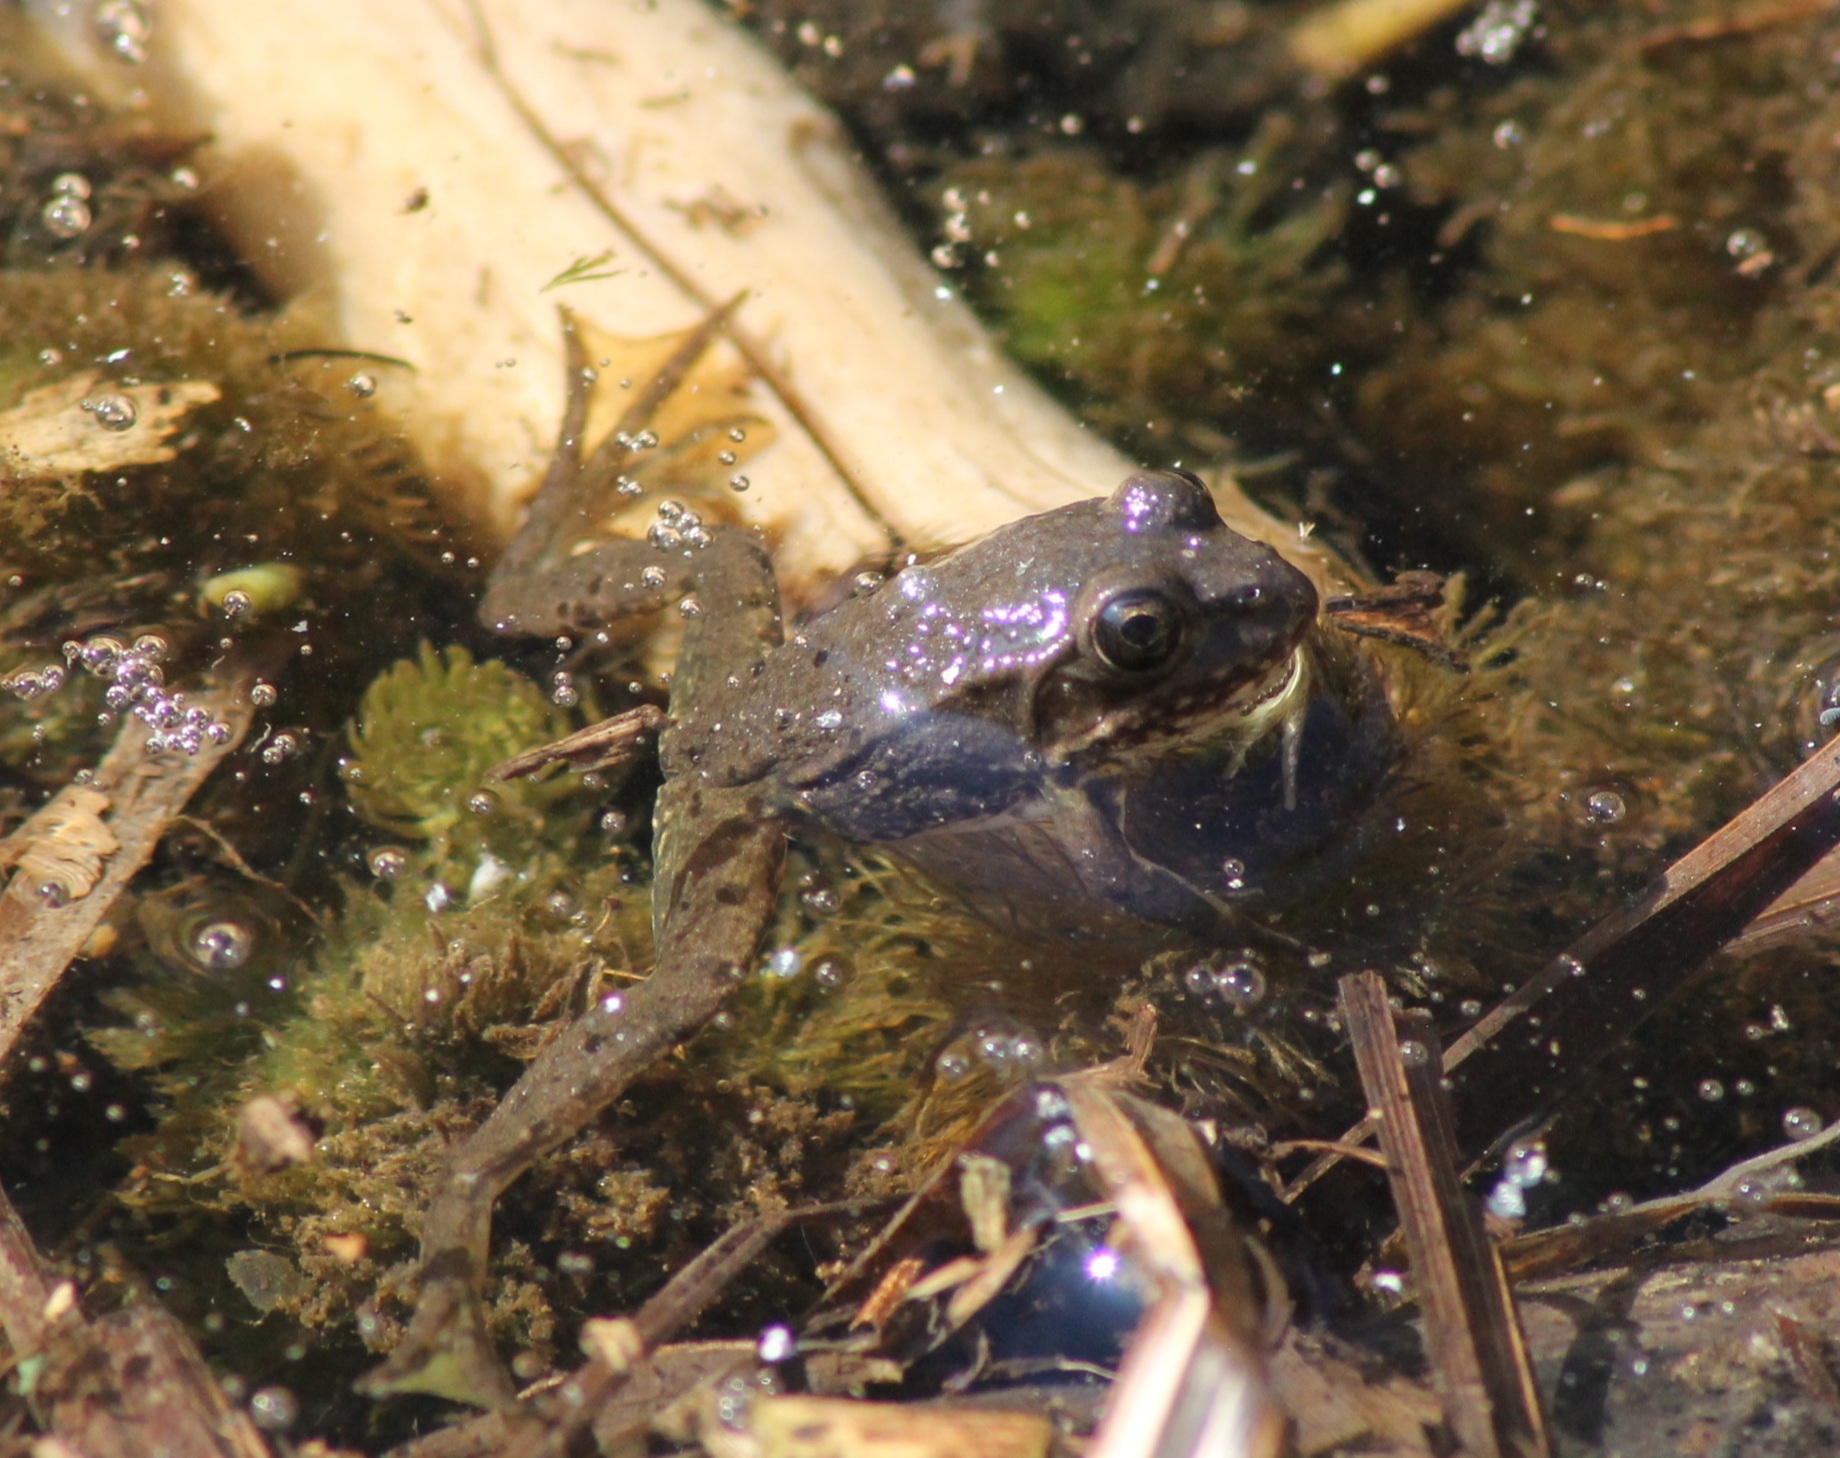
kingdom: Animalia
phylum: Chordata
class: Amphibia
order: Anura
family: Ranidae
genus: Pelophylax
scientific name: Pelophylax
